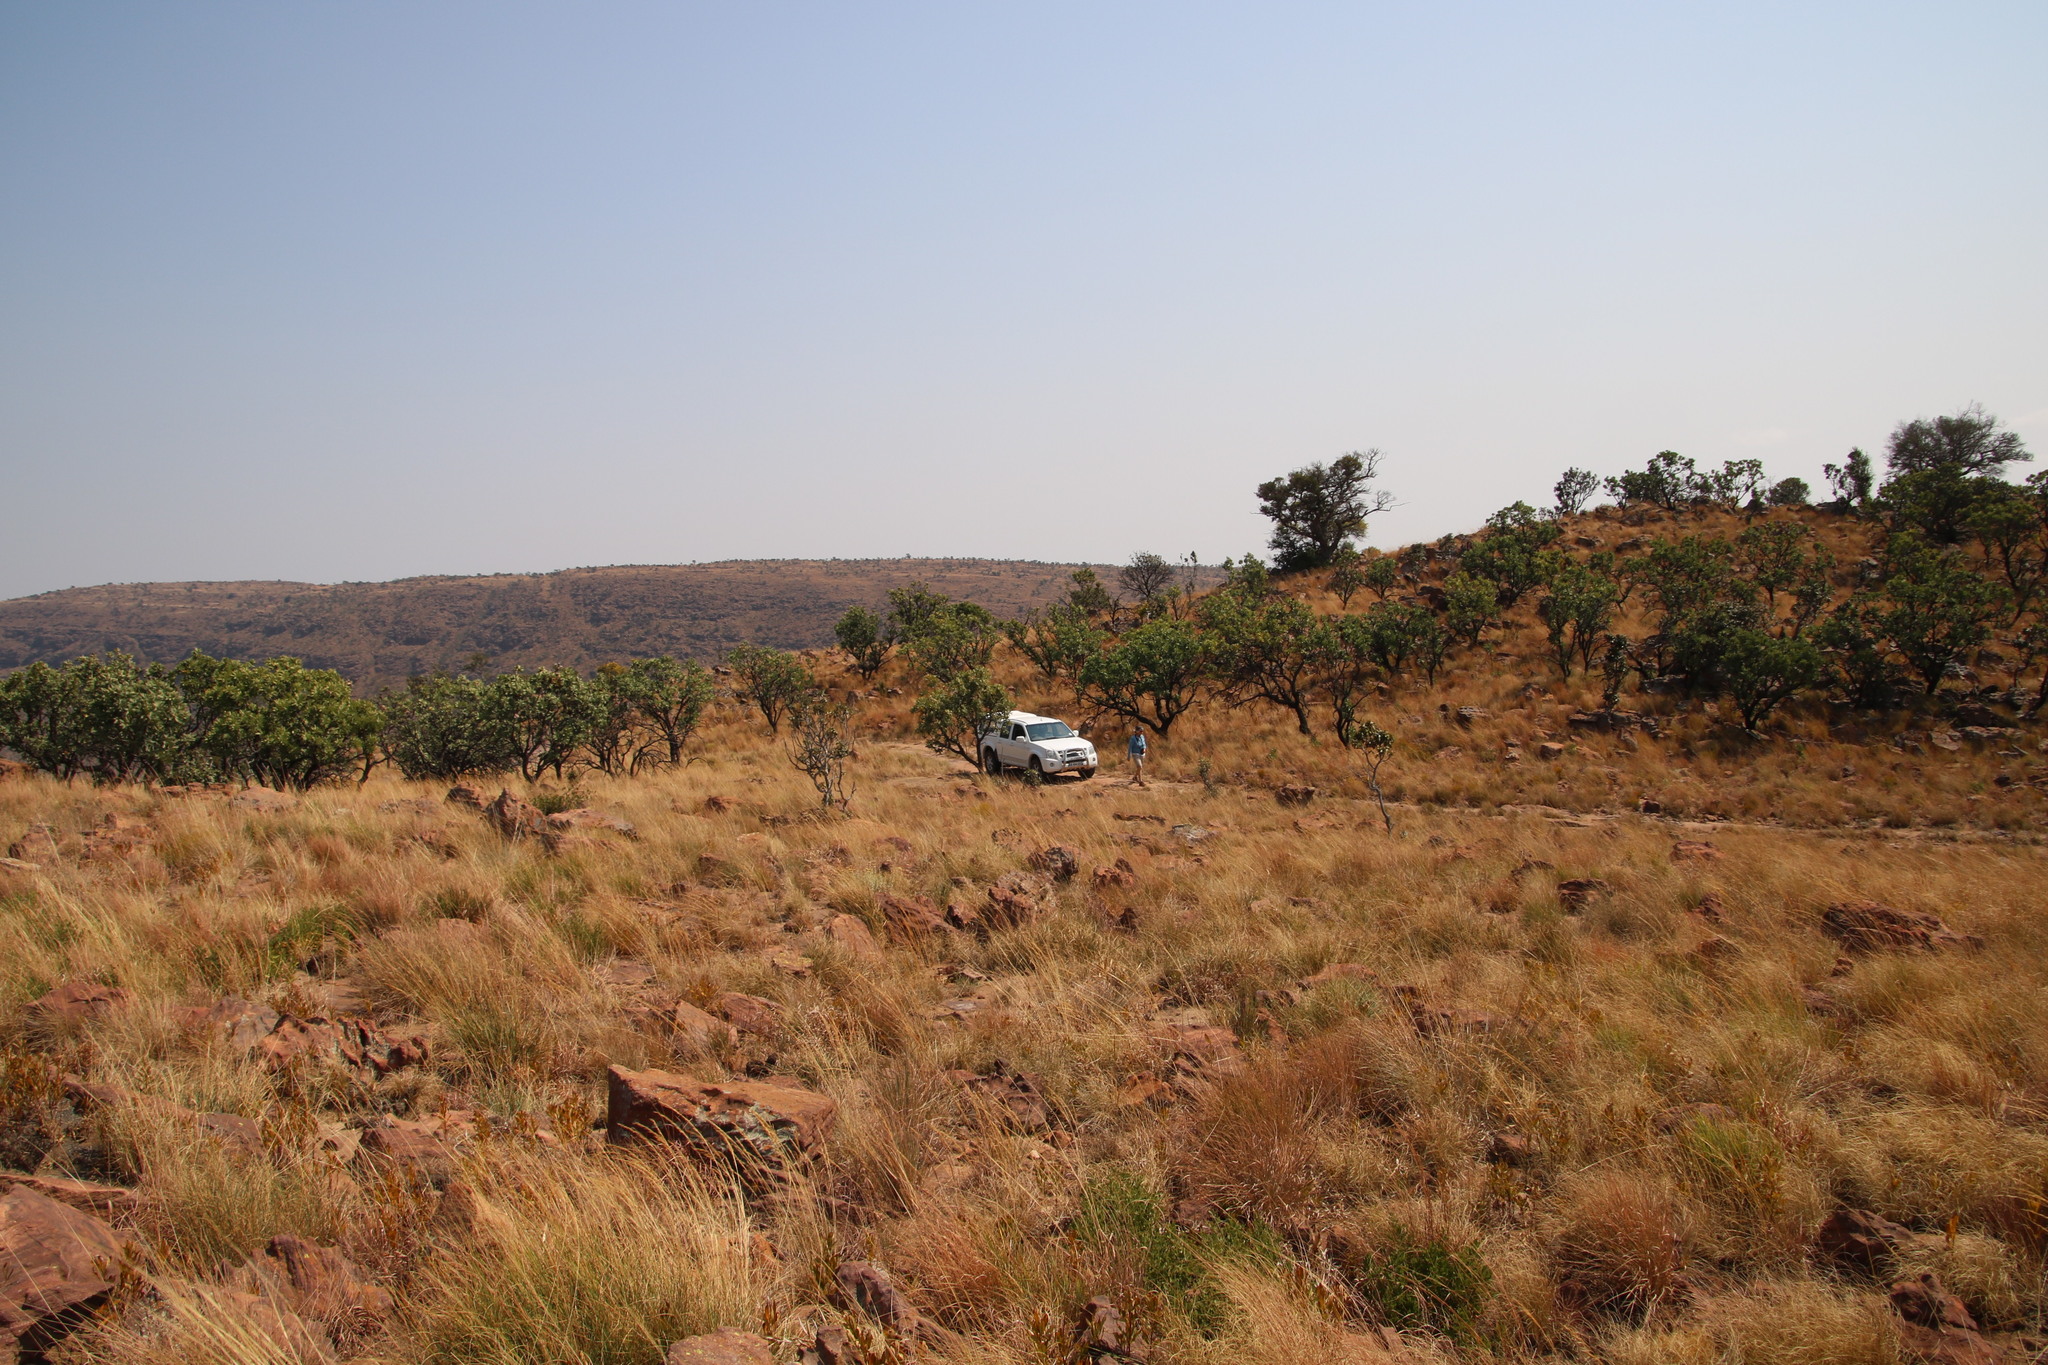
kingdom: Plantae
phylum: Tracheophyta
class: Magnoliopsida
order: Proteales
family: Proteaceae
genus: Protea
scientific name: Protea caffra
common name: Common sugarbush
